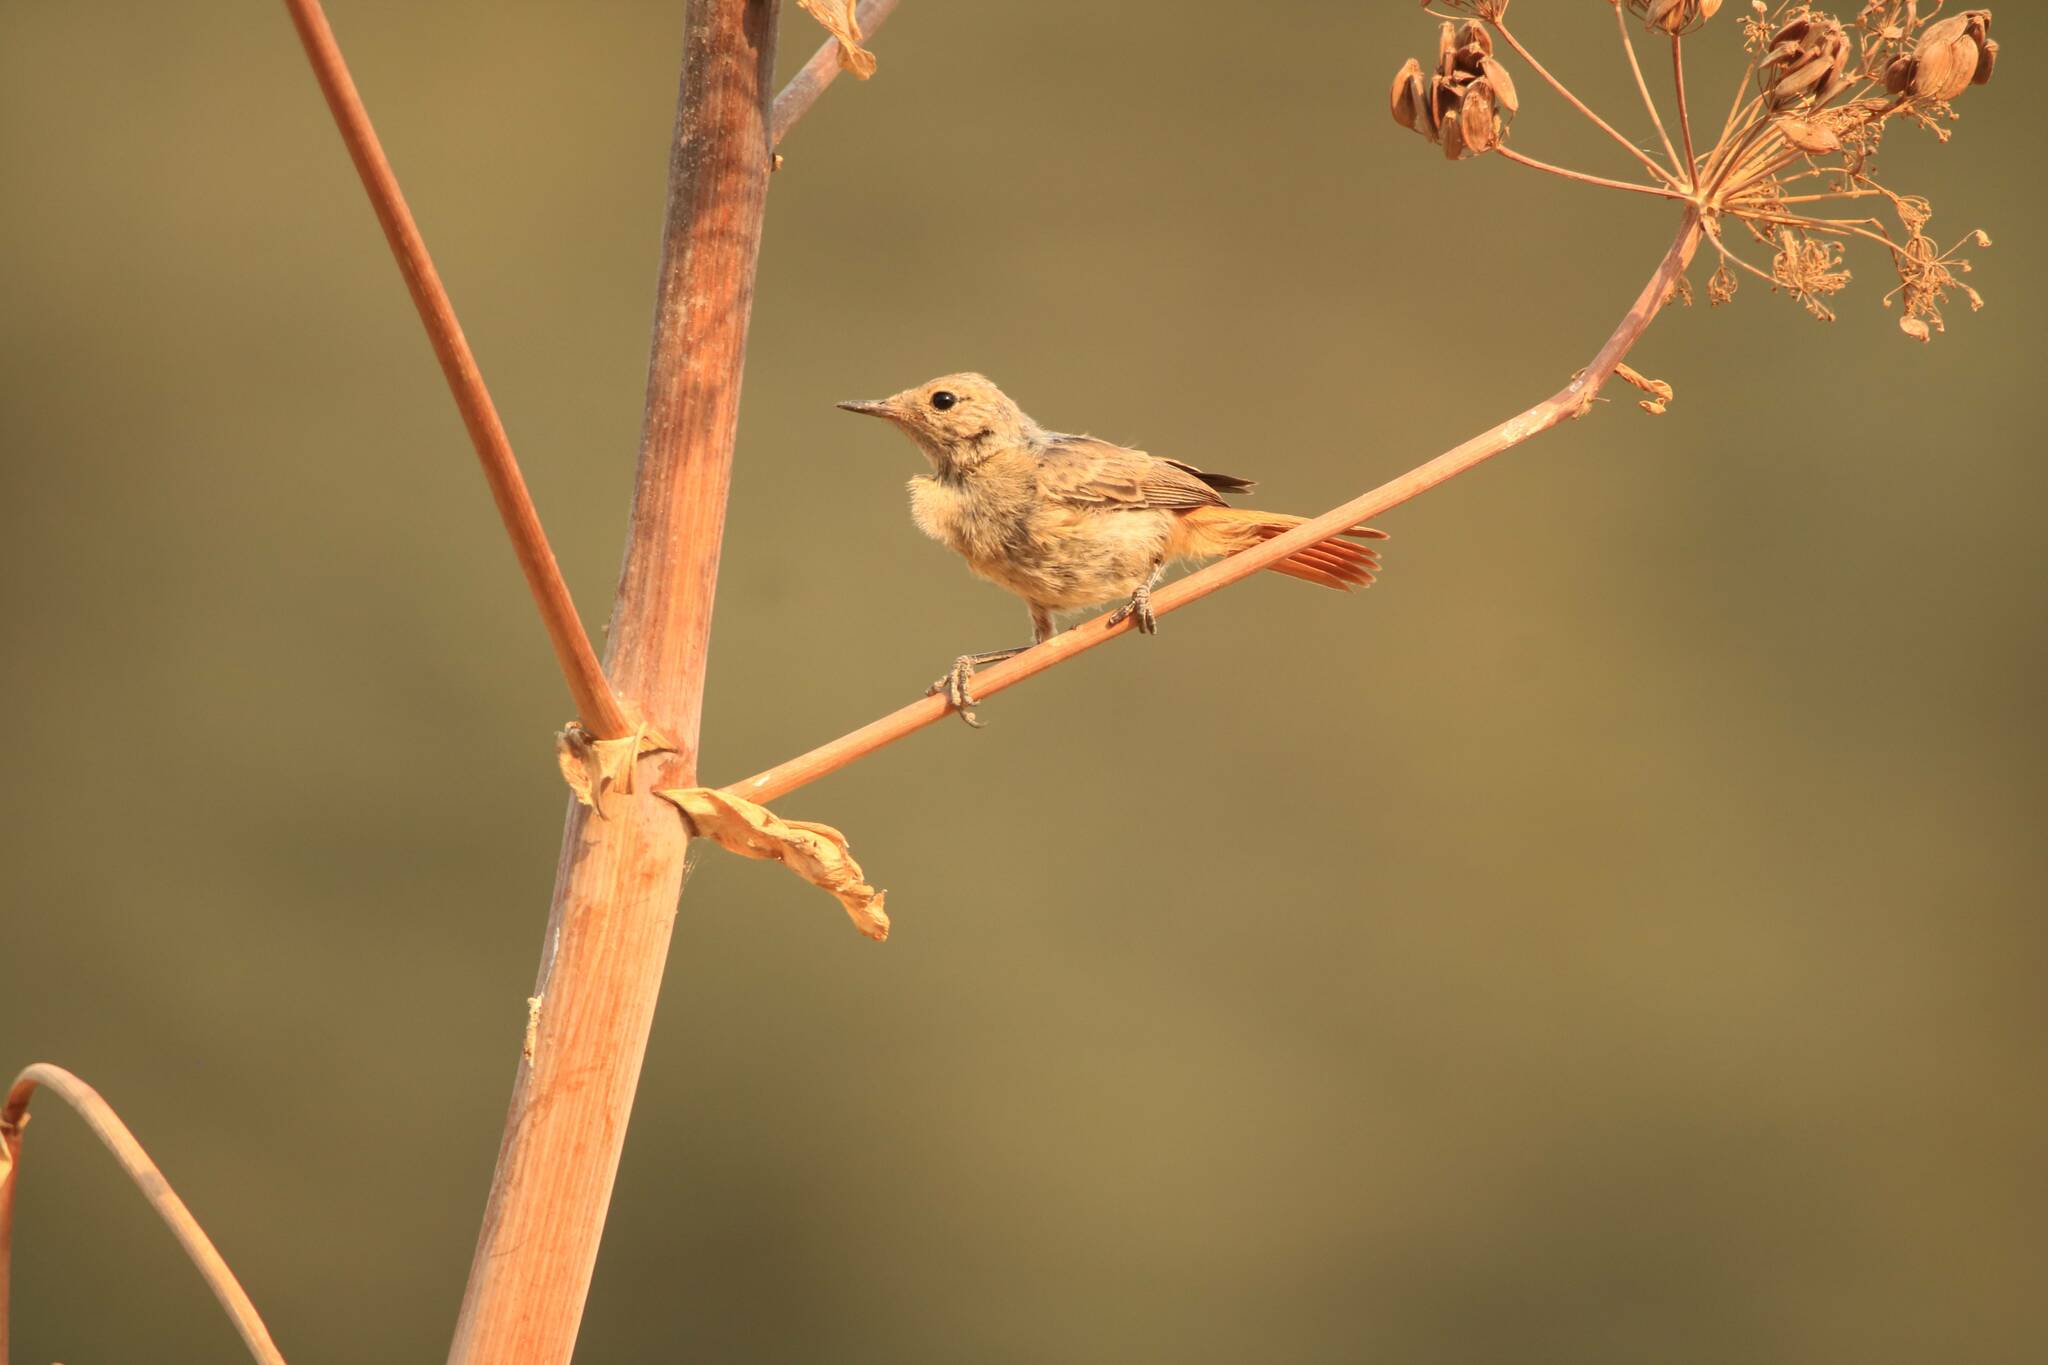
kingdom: Animalia
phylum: Chordata
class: Aves
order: Passeriformes
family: Muscicapidae
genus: Phoenicurus
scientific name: Phoenicurus phoenicurus
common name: Common redstart
